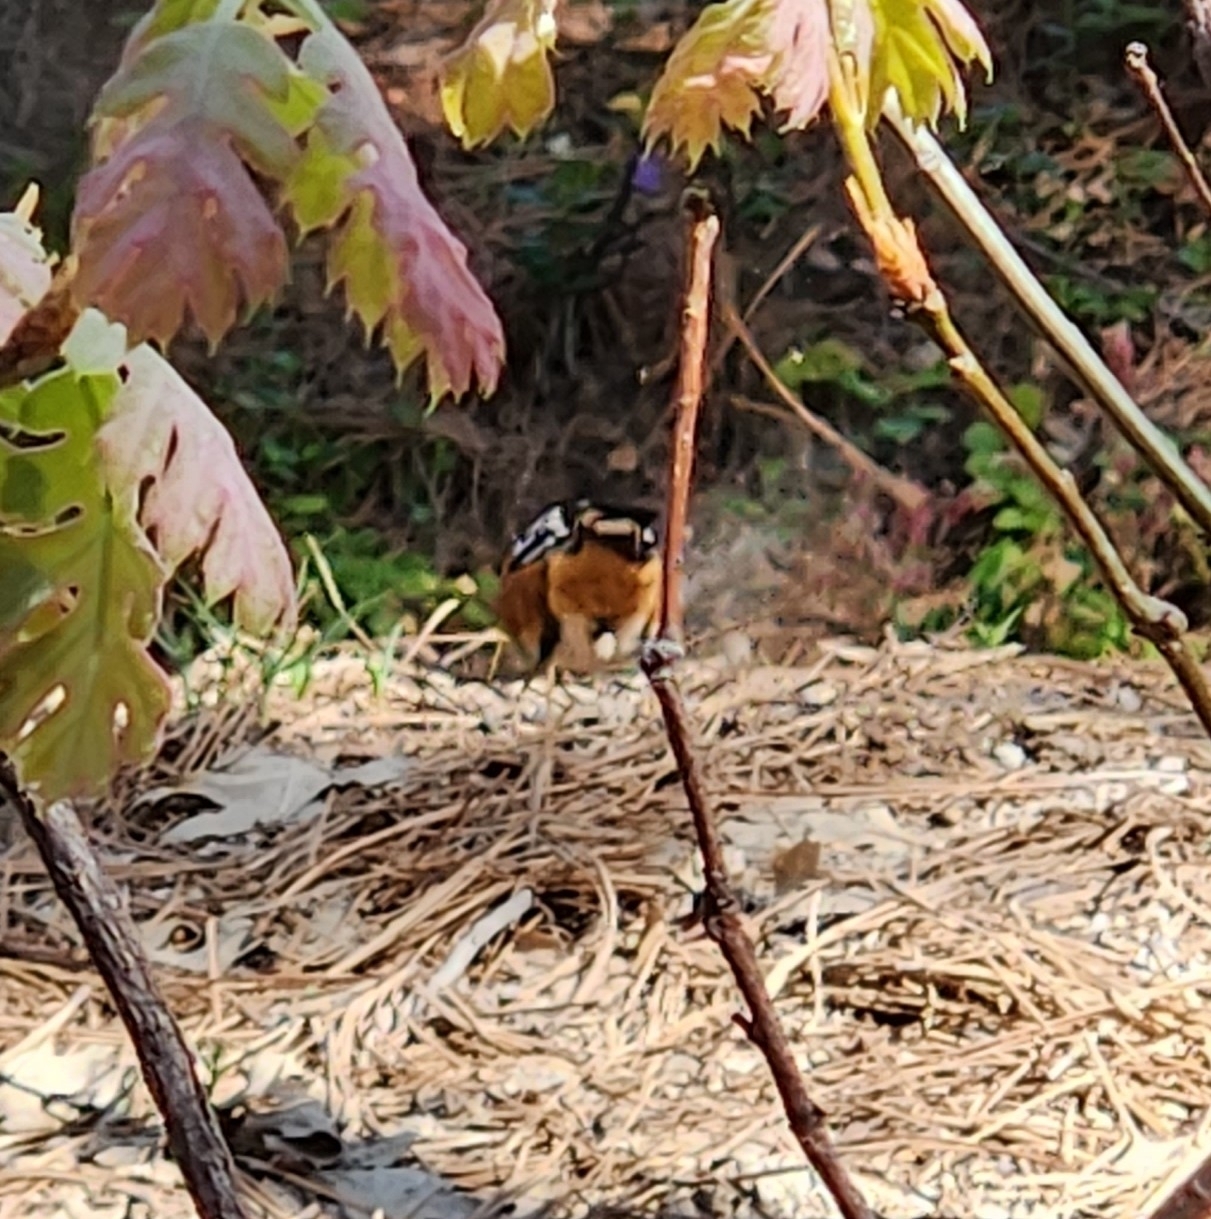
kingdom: Animalia
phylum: Chordata
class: Aves
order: Passeriformes
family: Cardinalidae
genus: Pheucticus
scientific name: Pheucticus melanocephalus
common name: Black-headed grosbeak
